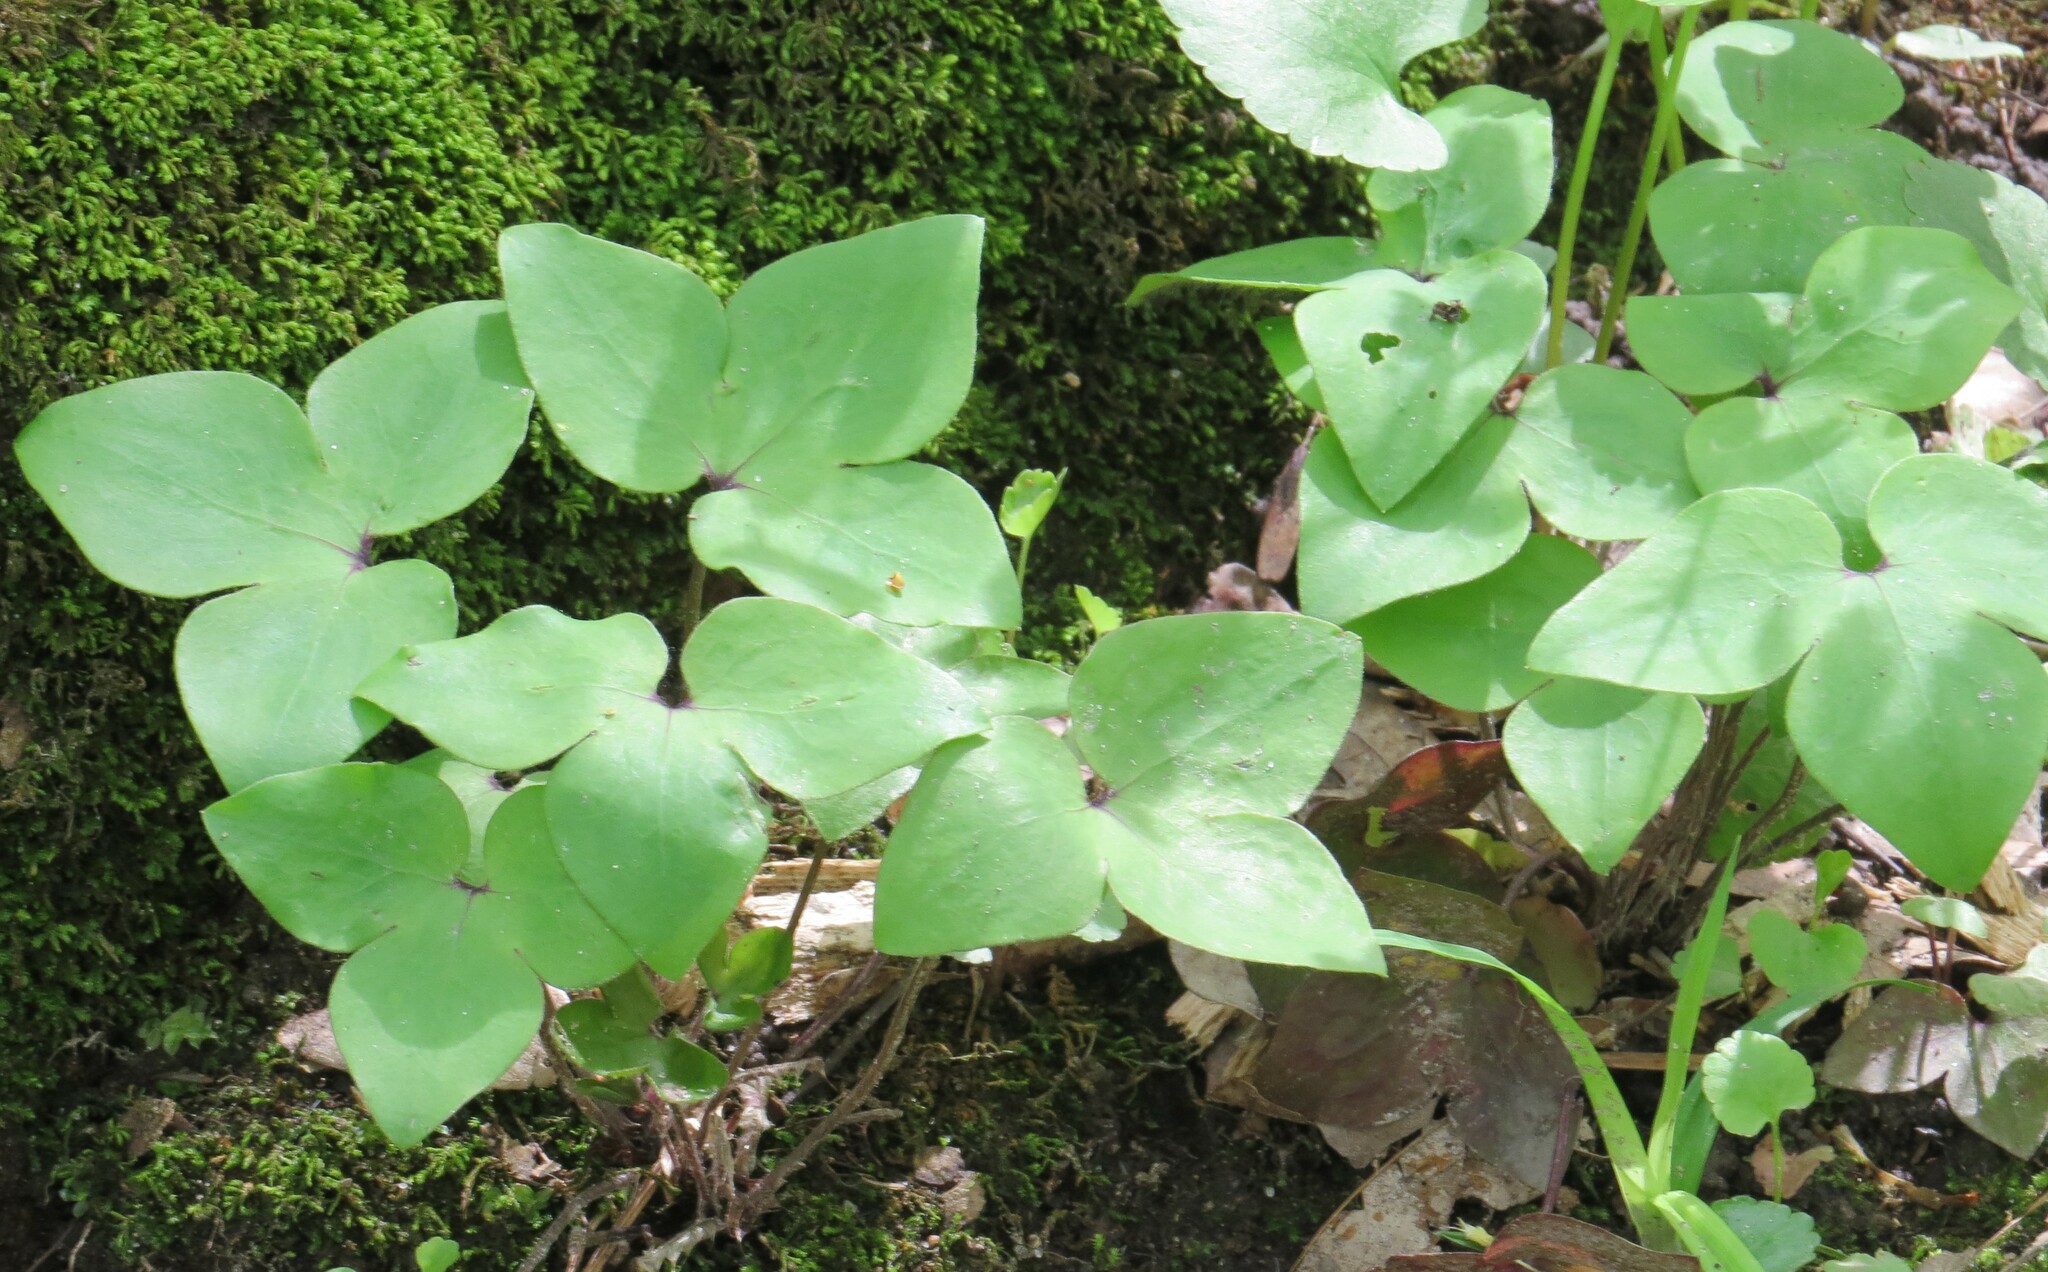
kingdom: Plantae
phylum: Tracheophyta
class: Magnoliopsida
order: Ranunculales
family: Ranunculaceae
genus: Hepatica
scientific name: Hepatica acutiloba
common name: Sharp-lobed hepatica
